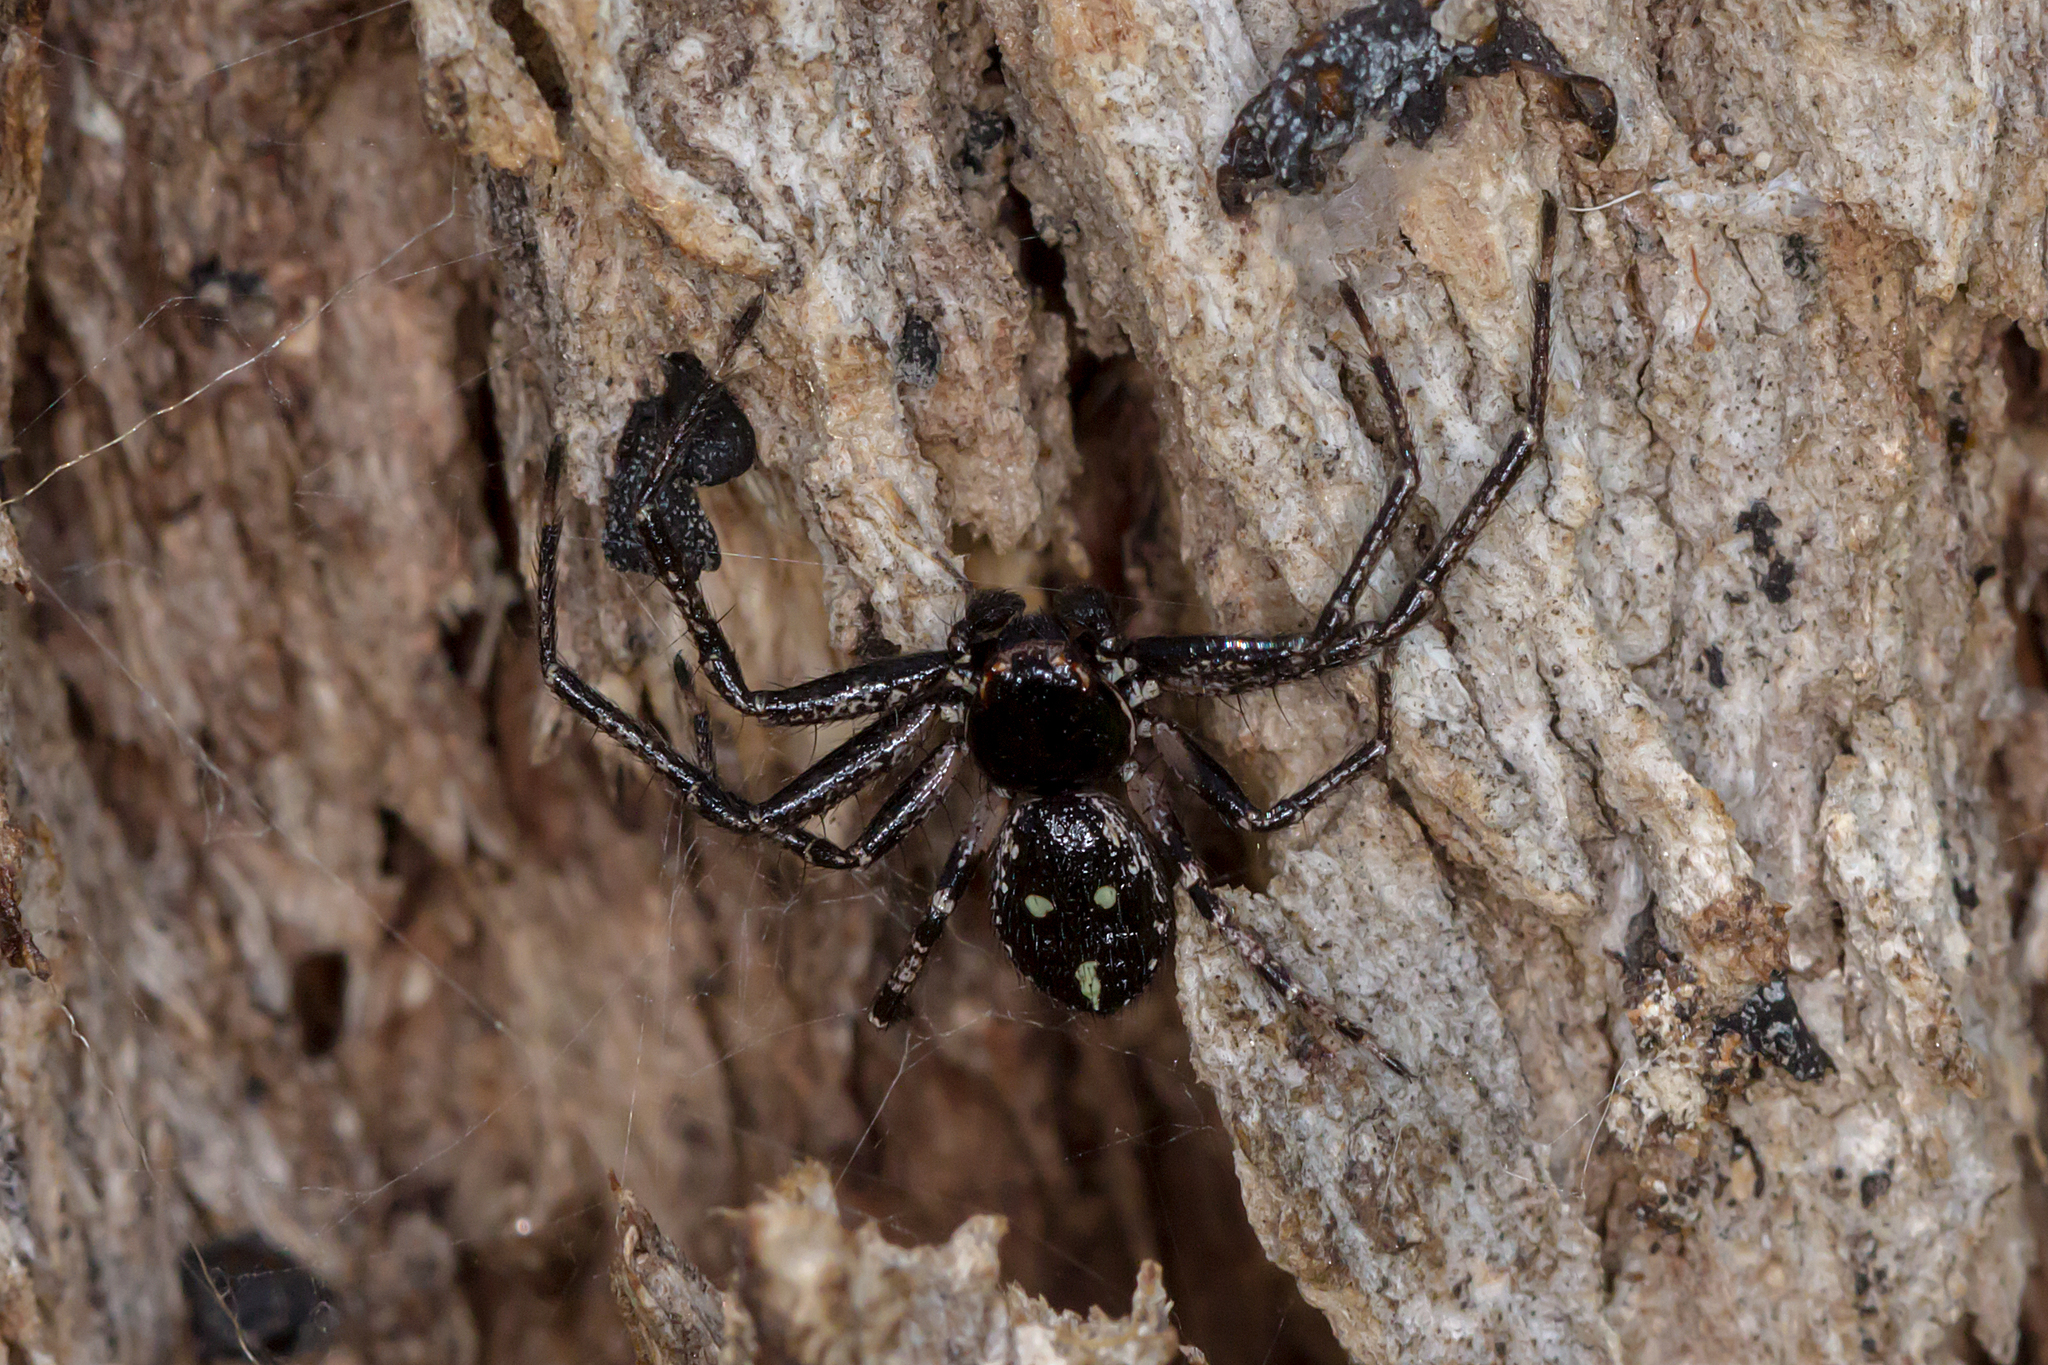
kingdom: Animalia
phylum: Arthropoda
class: Arachnida
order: Araneae
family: Thomisidae
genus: Tharpyna
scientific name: Tharpyna campestrata
